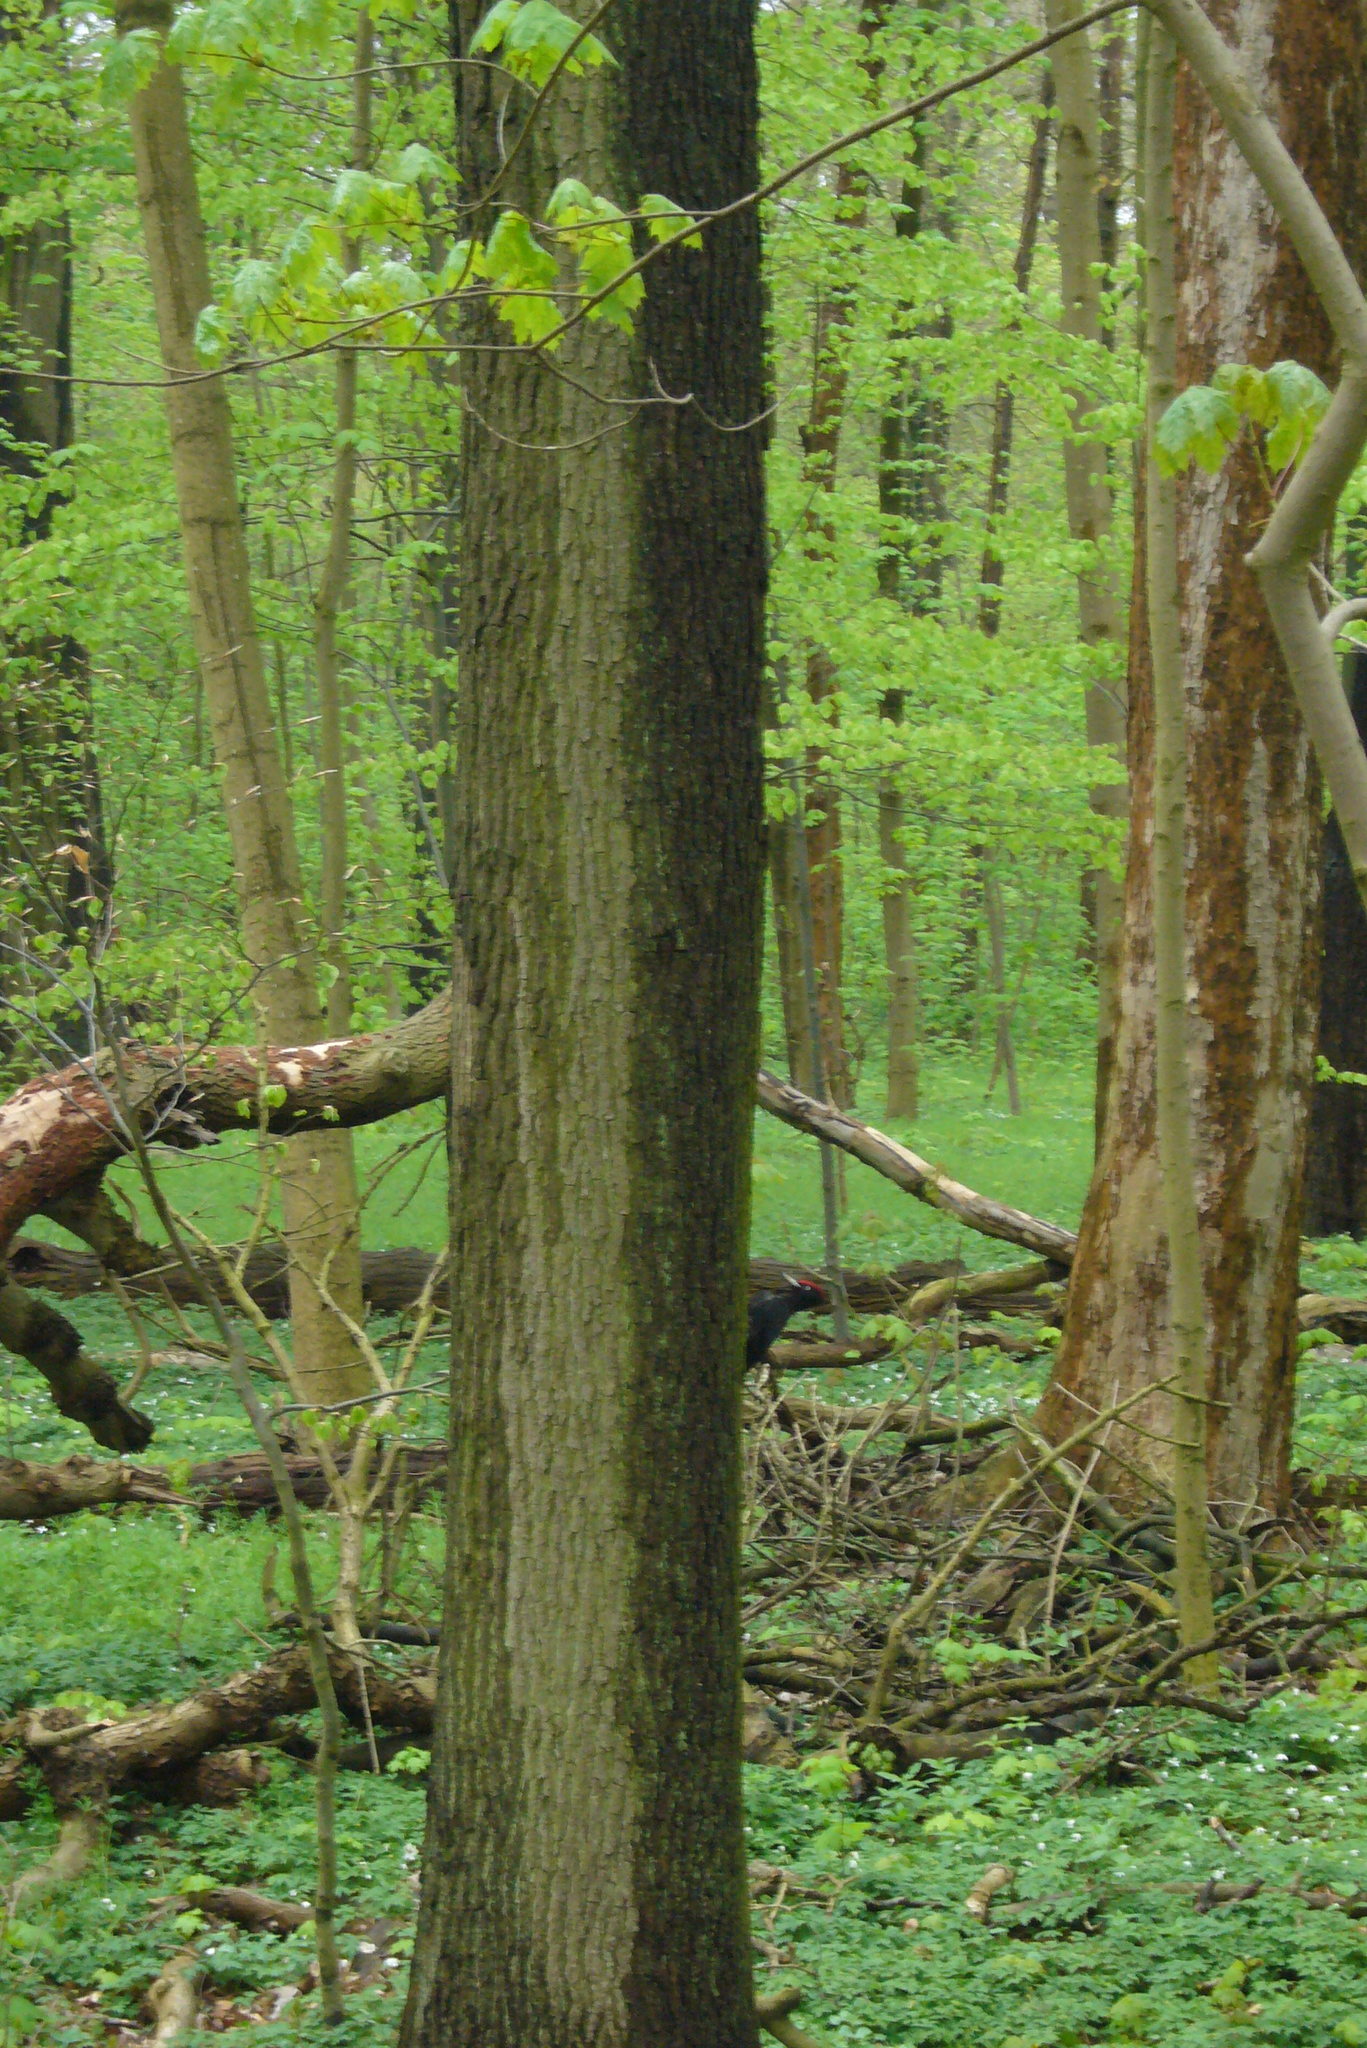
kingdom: Animalia
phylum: Chordata
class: Aves
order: Piciformes
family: Picidae
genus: Dryocopus
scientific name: Dryocopus martius
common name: Black woodpecker
